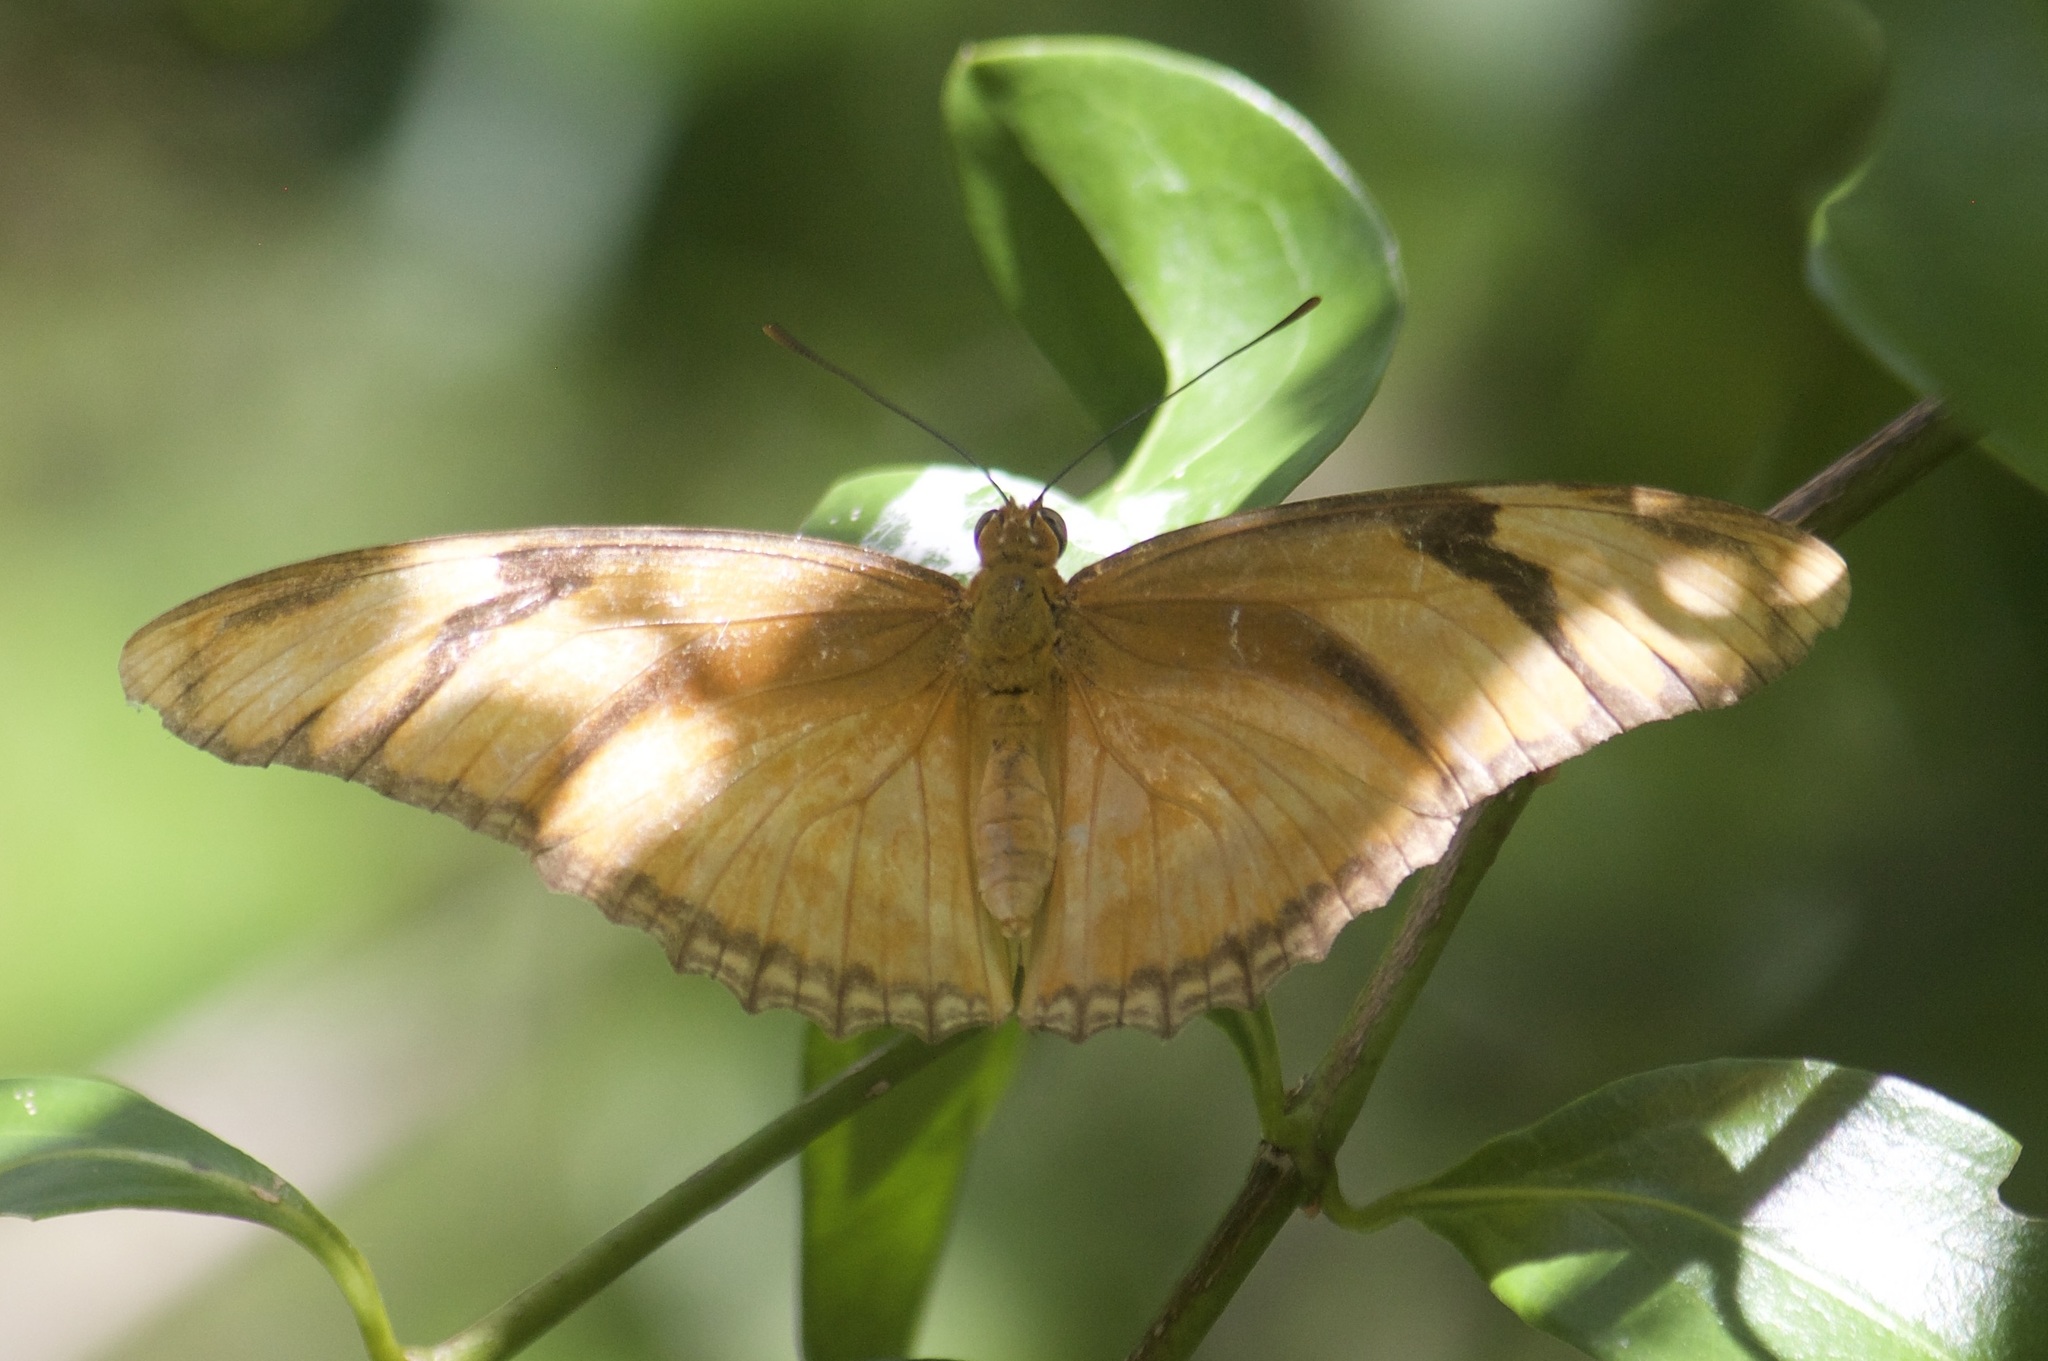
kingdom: Animalia
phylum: Arthropoda
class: Insecta
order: Lepidoptera
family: Nymphalidae
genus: Dryas
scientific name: Dryas iulia
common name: Flambeau
